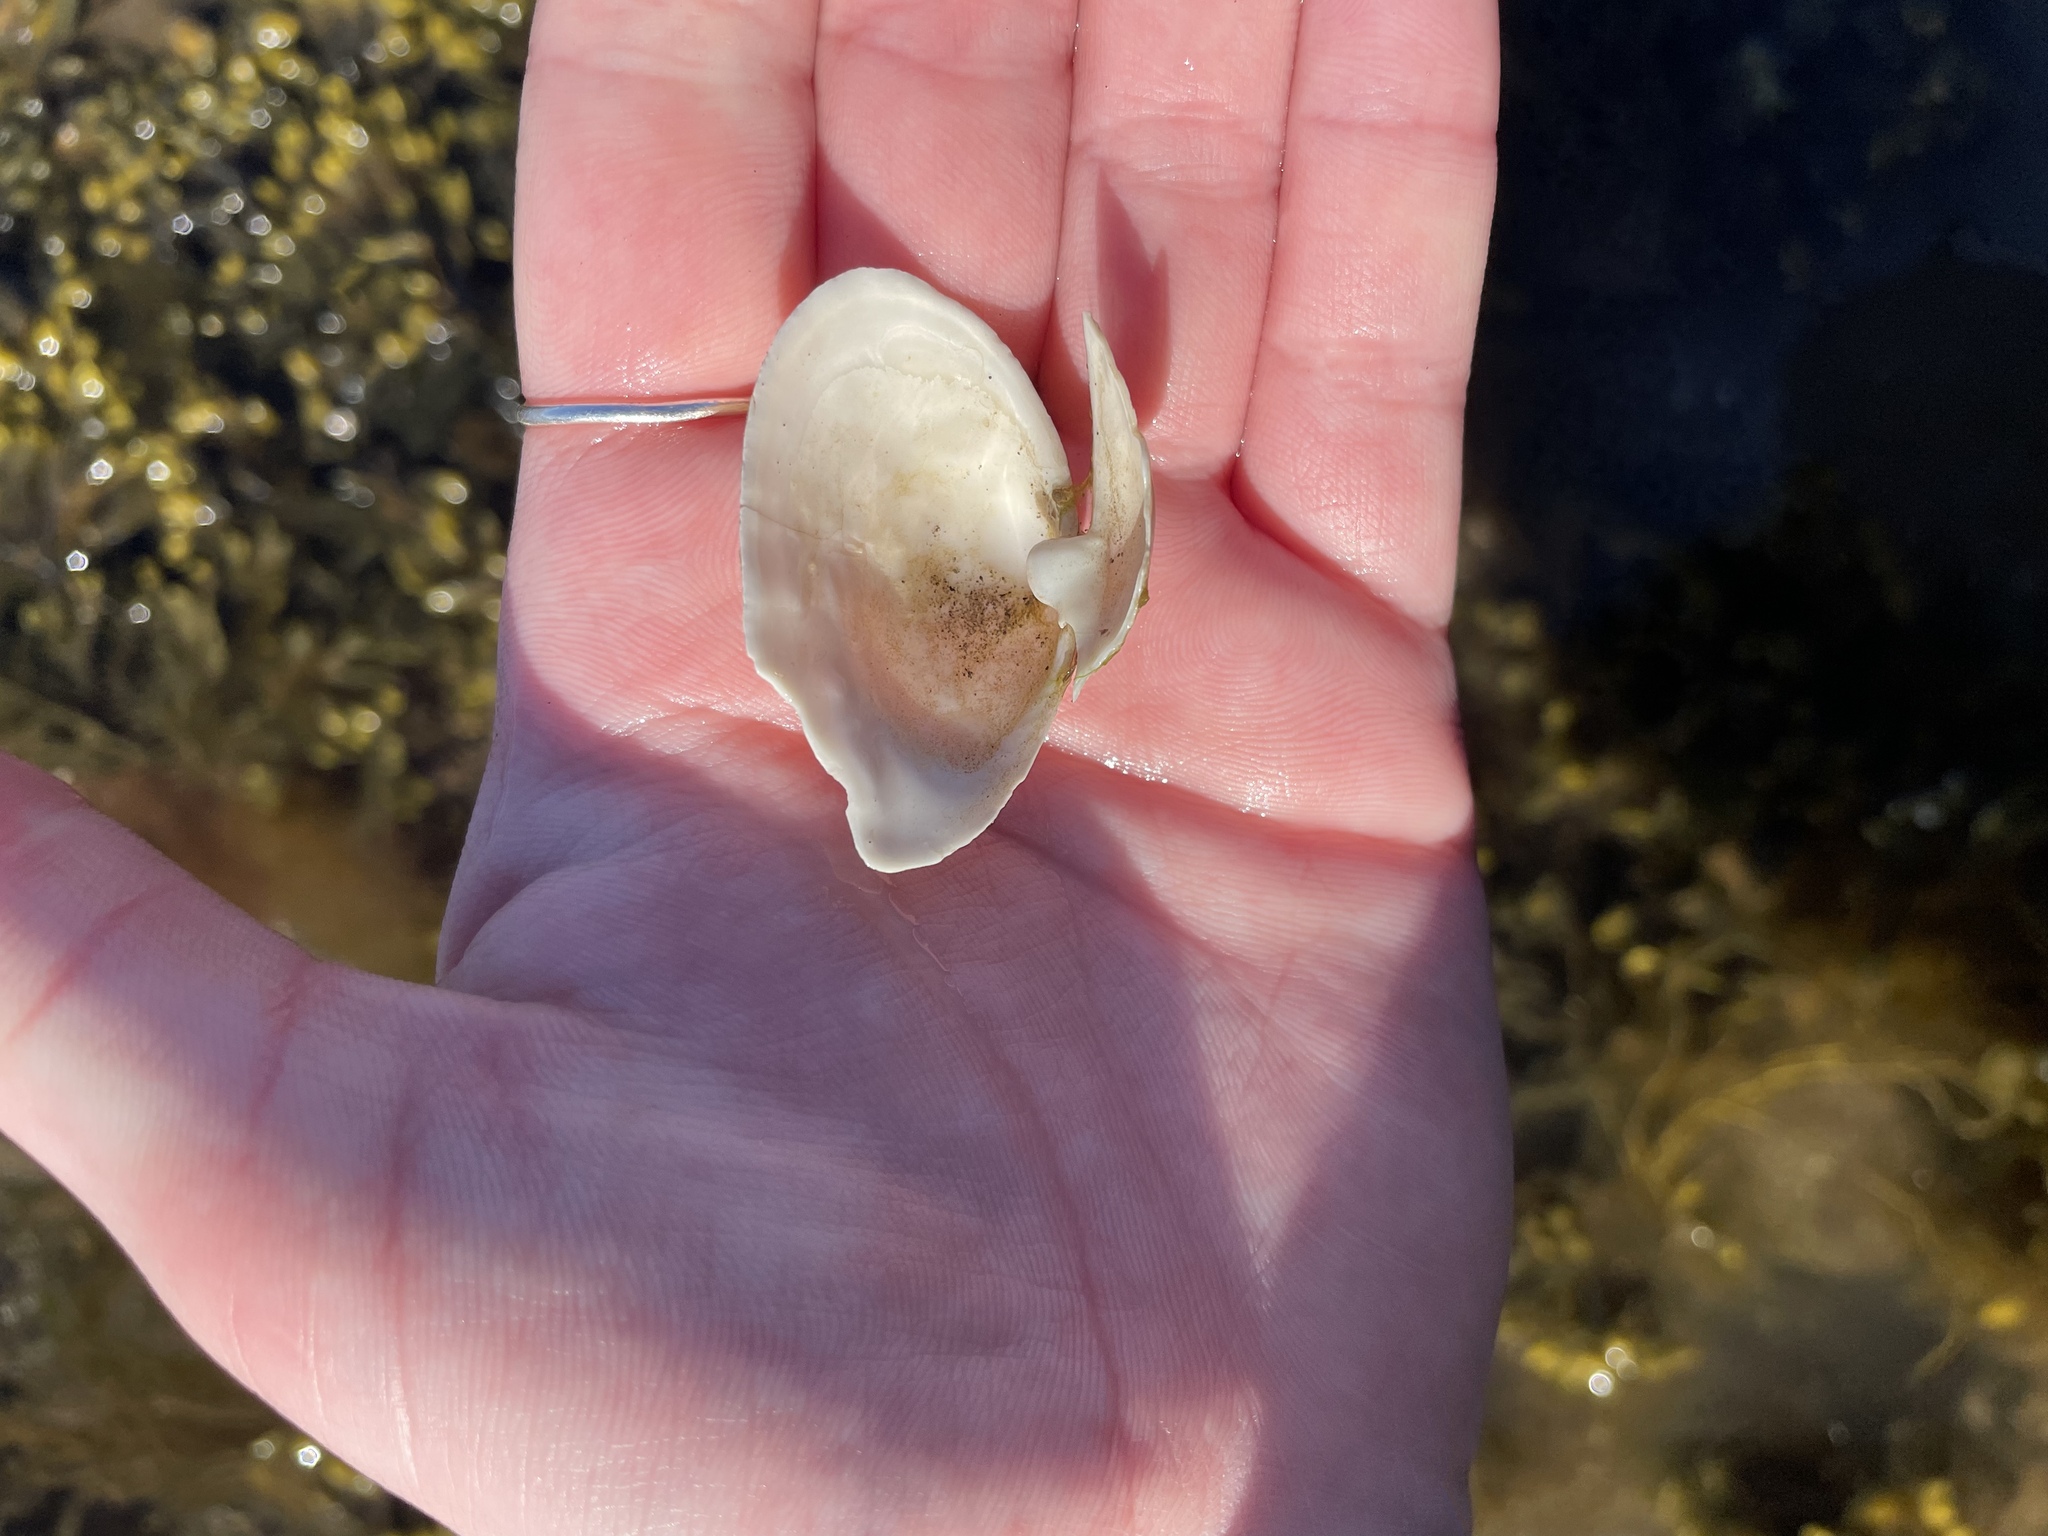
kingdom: Animalia
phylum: Mollusca
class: Bivalvia
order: Myida
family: Myidae
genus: Mya
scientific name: Mya arenaria
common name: Soft-shelled clam
